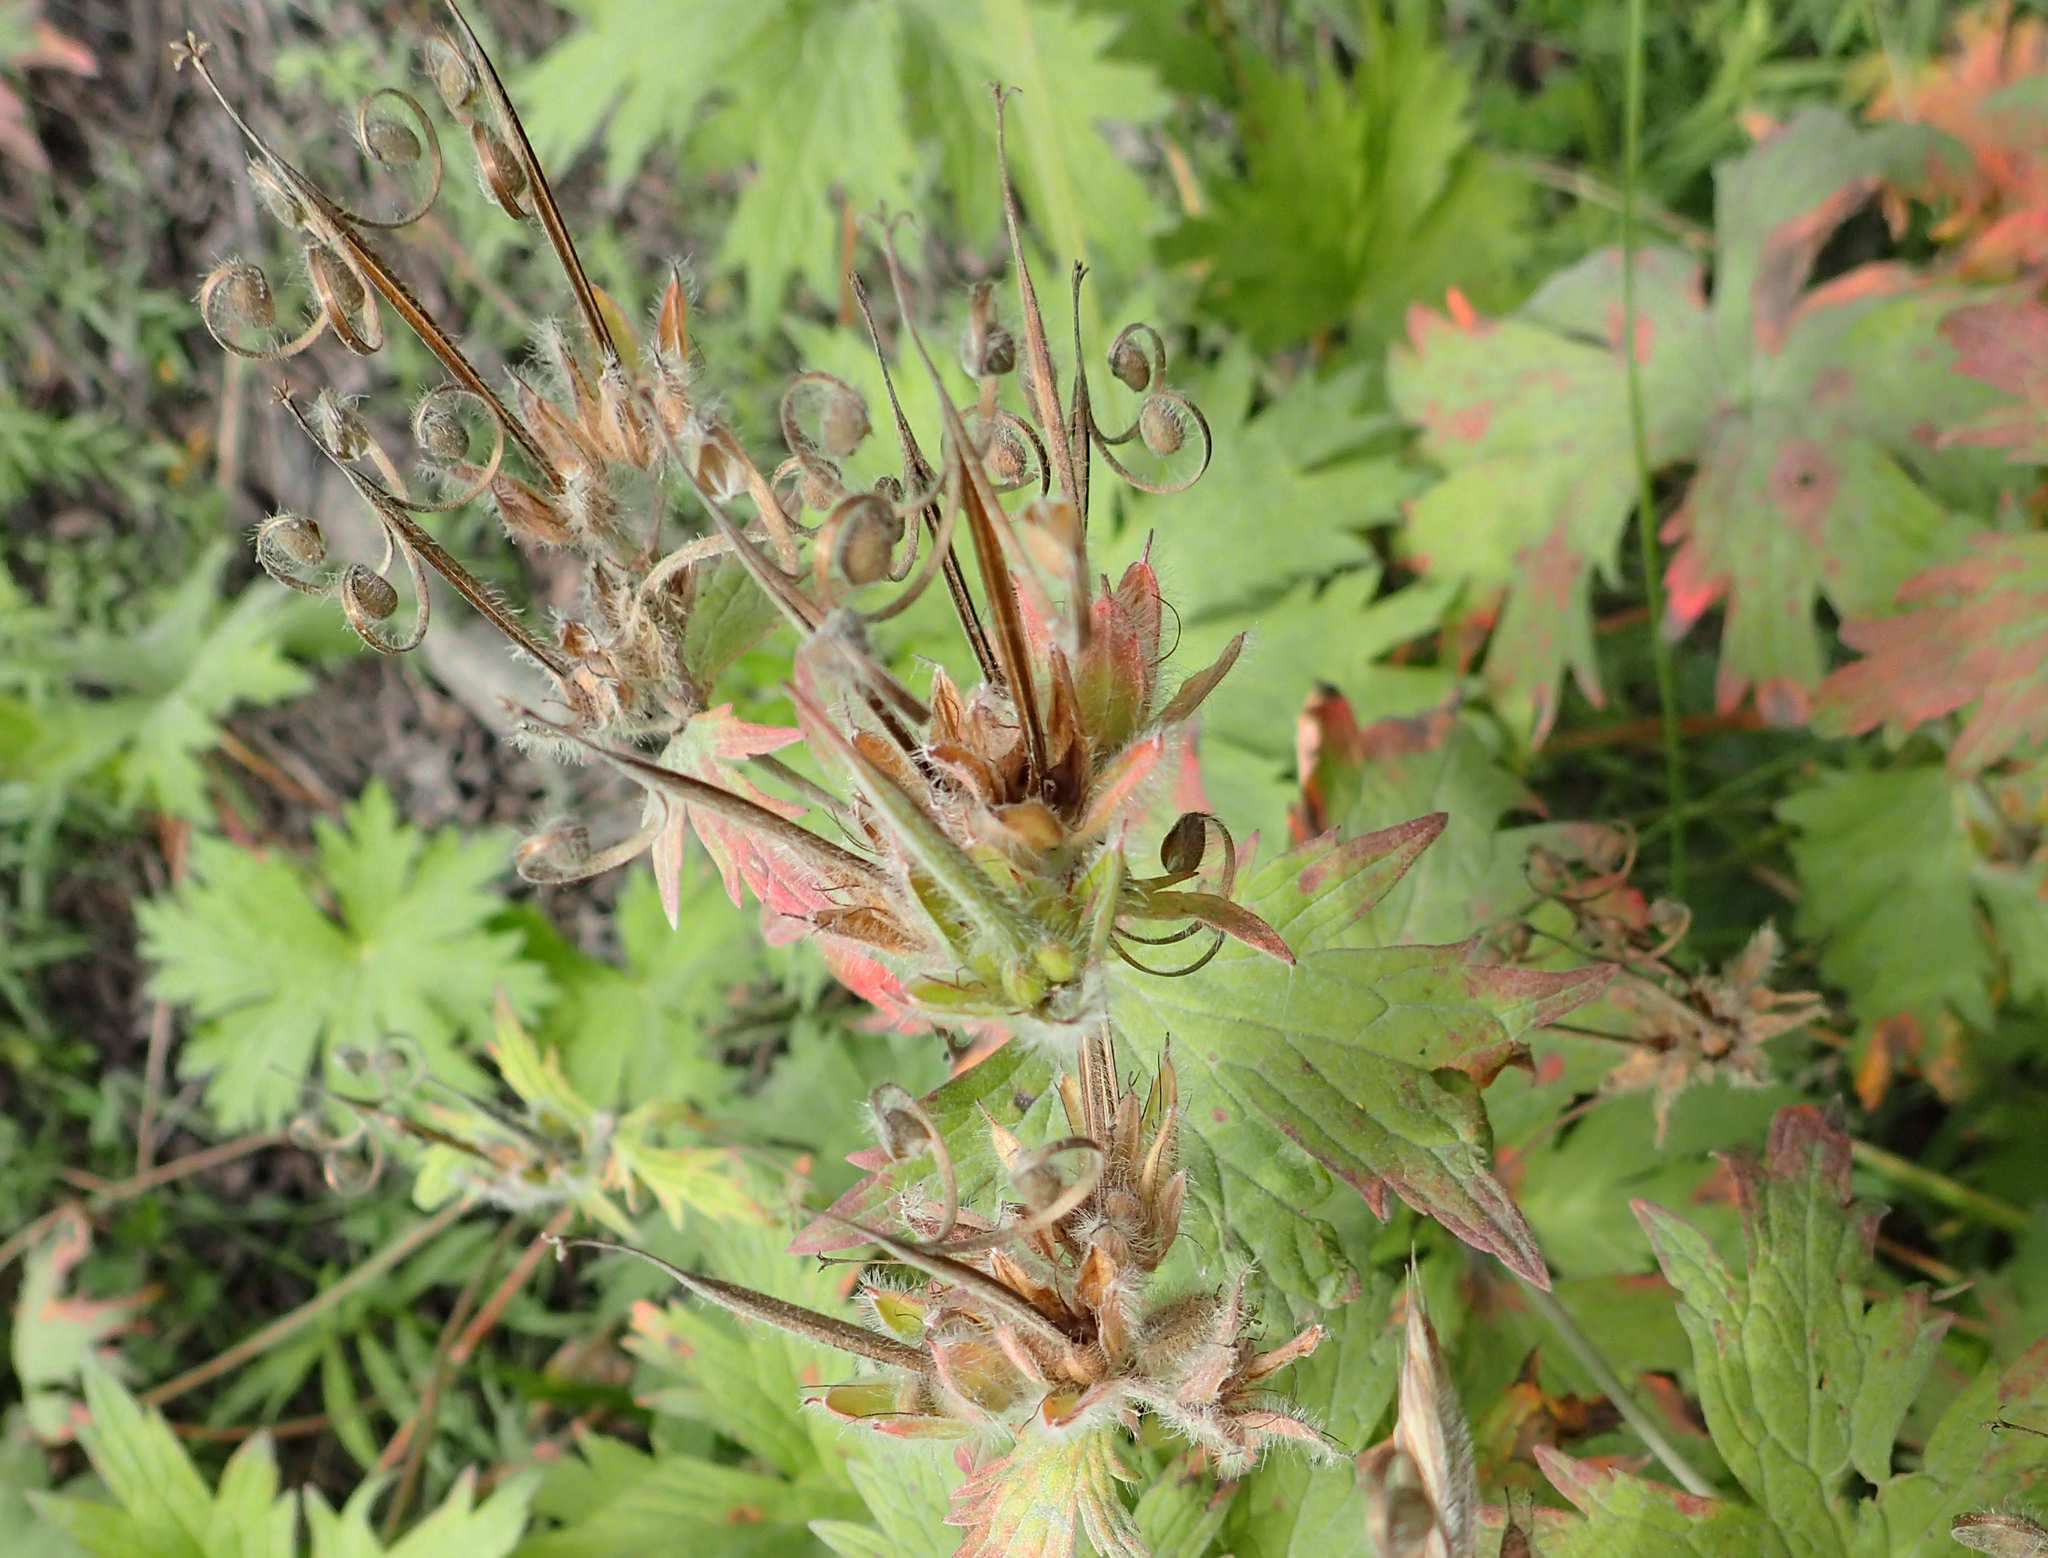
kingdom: Plantae
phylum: Tracheophyta
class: Magnoliopsida
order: Geraniales
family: Geraniaceae
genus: Geranium
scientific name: Geranium erianthum
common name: Northern crane's-bill
